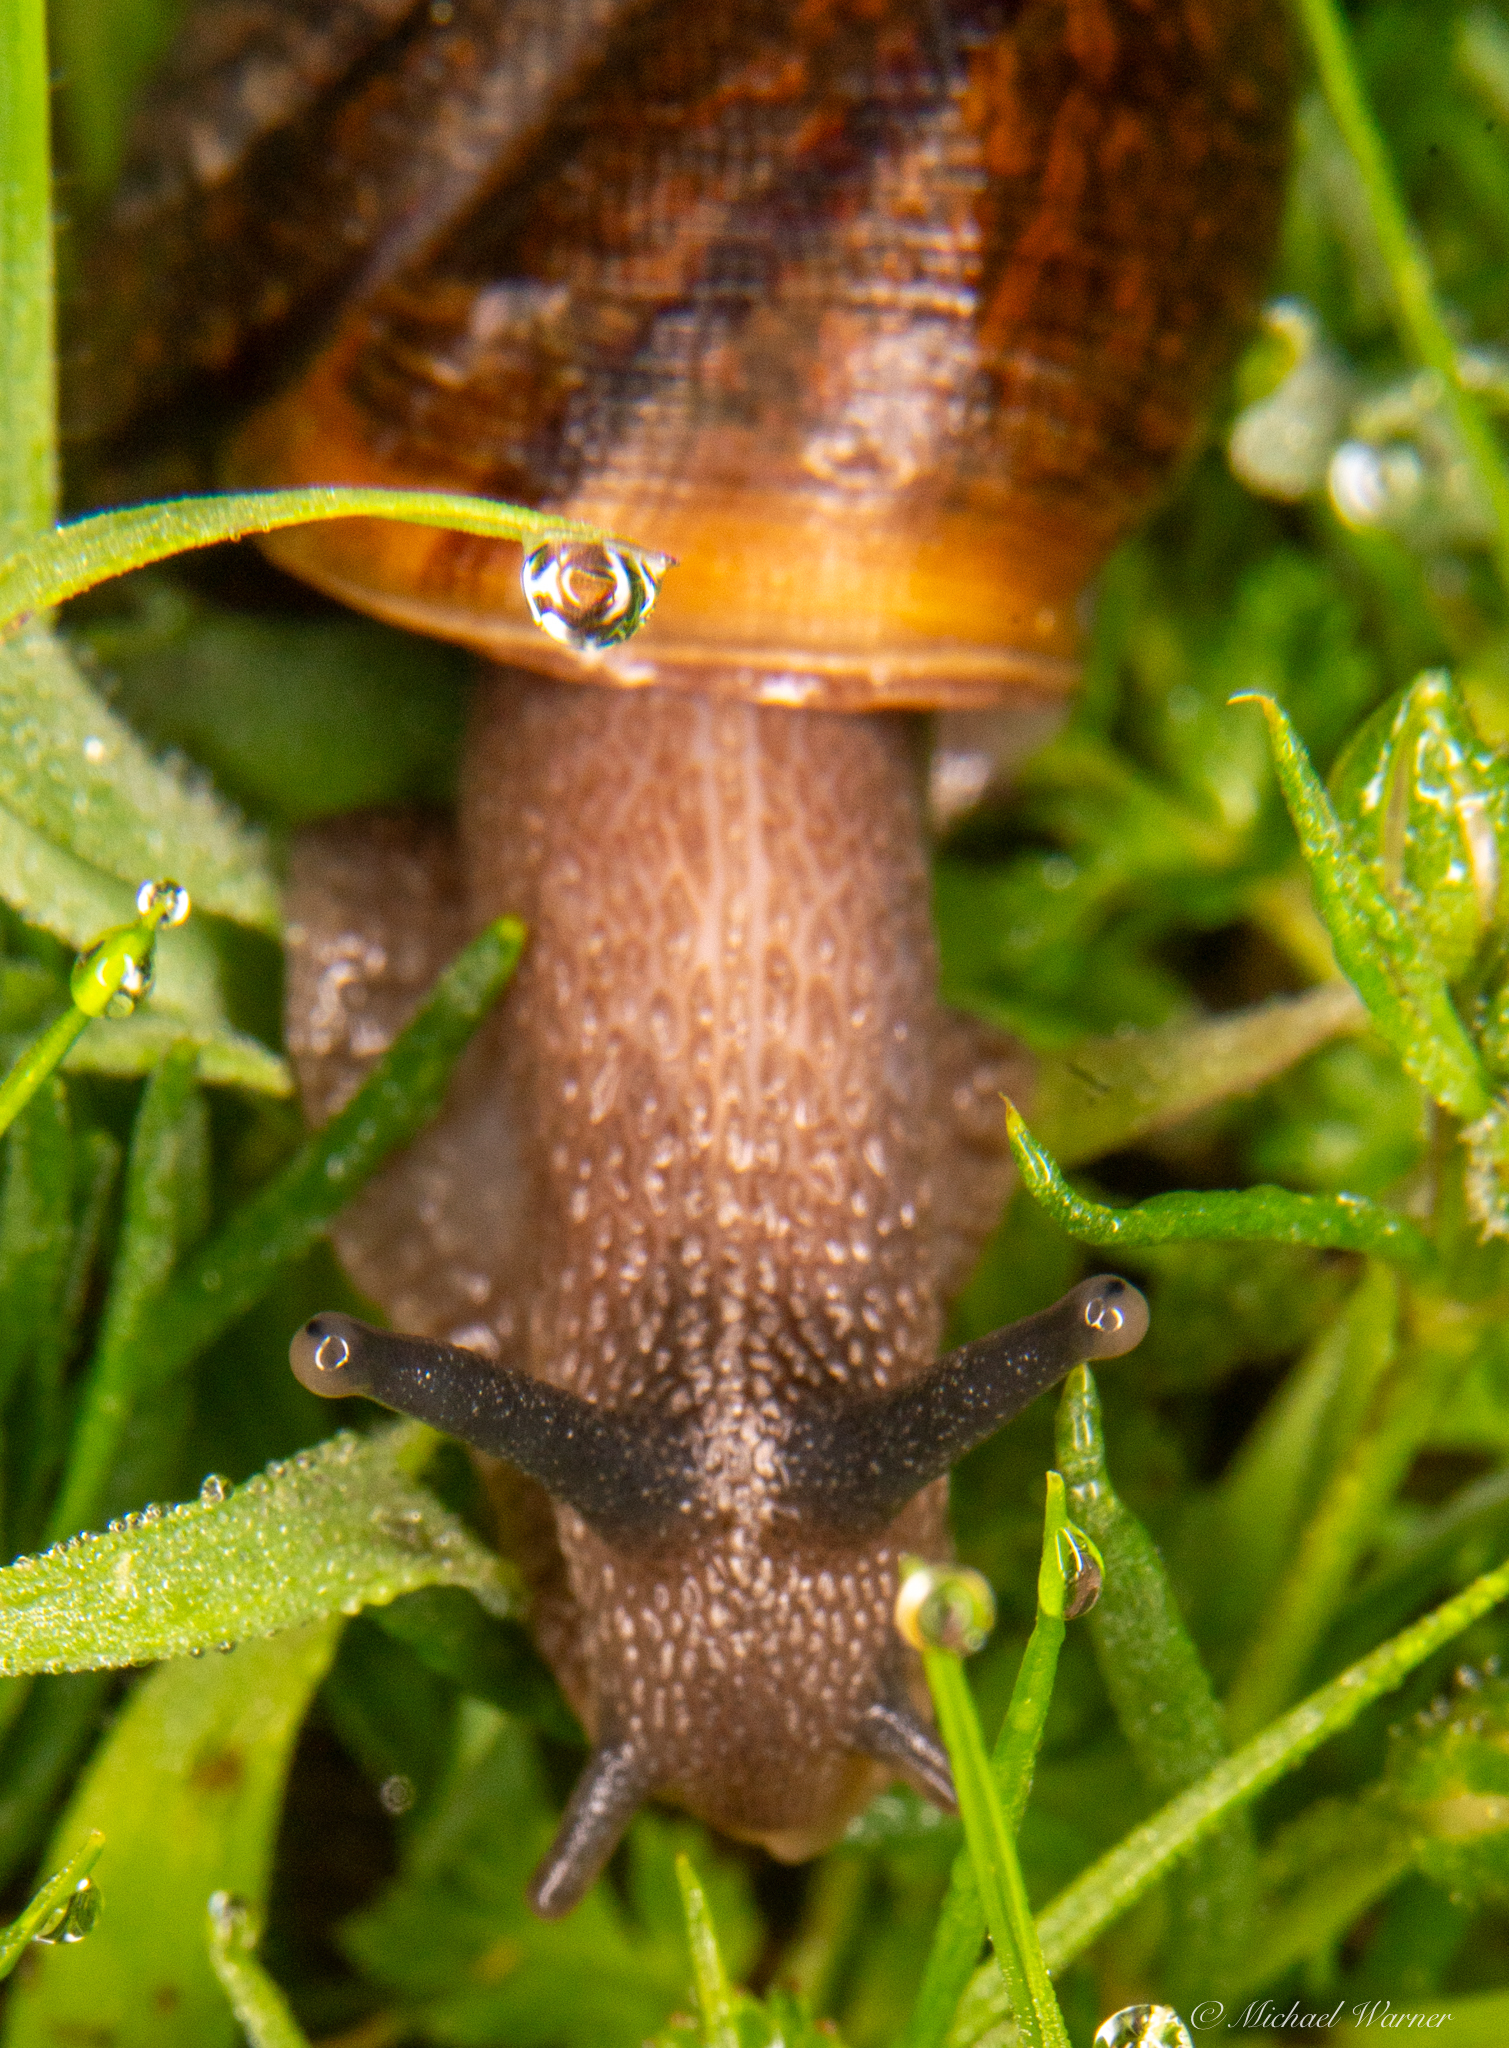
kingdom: Animalia
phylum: Mollusca
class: Gastropoda
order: Stylommatophora
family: Xanthonychidae
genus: Helminthoglypta
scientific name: Helminthoglypta diabloensis
